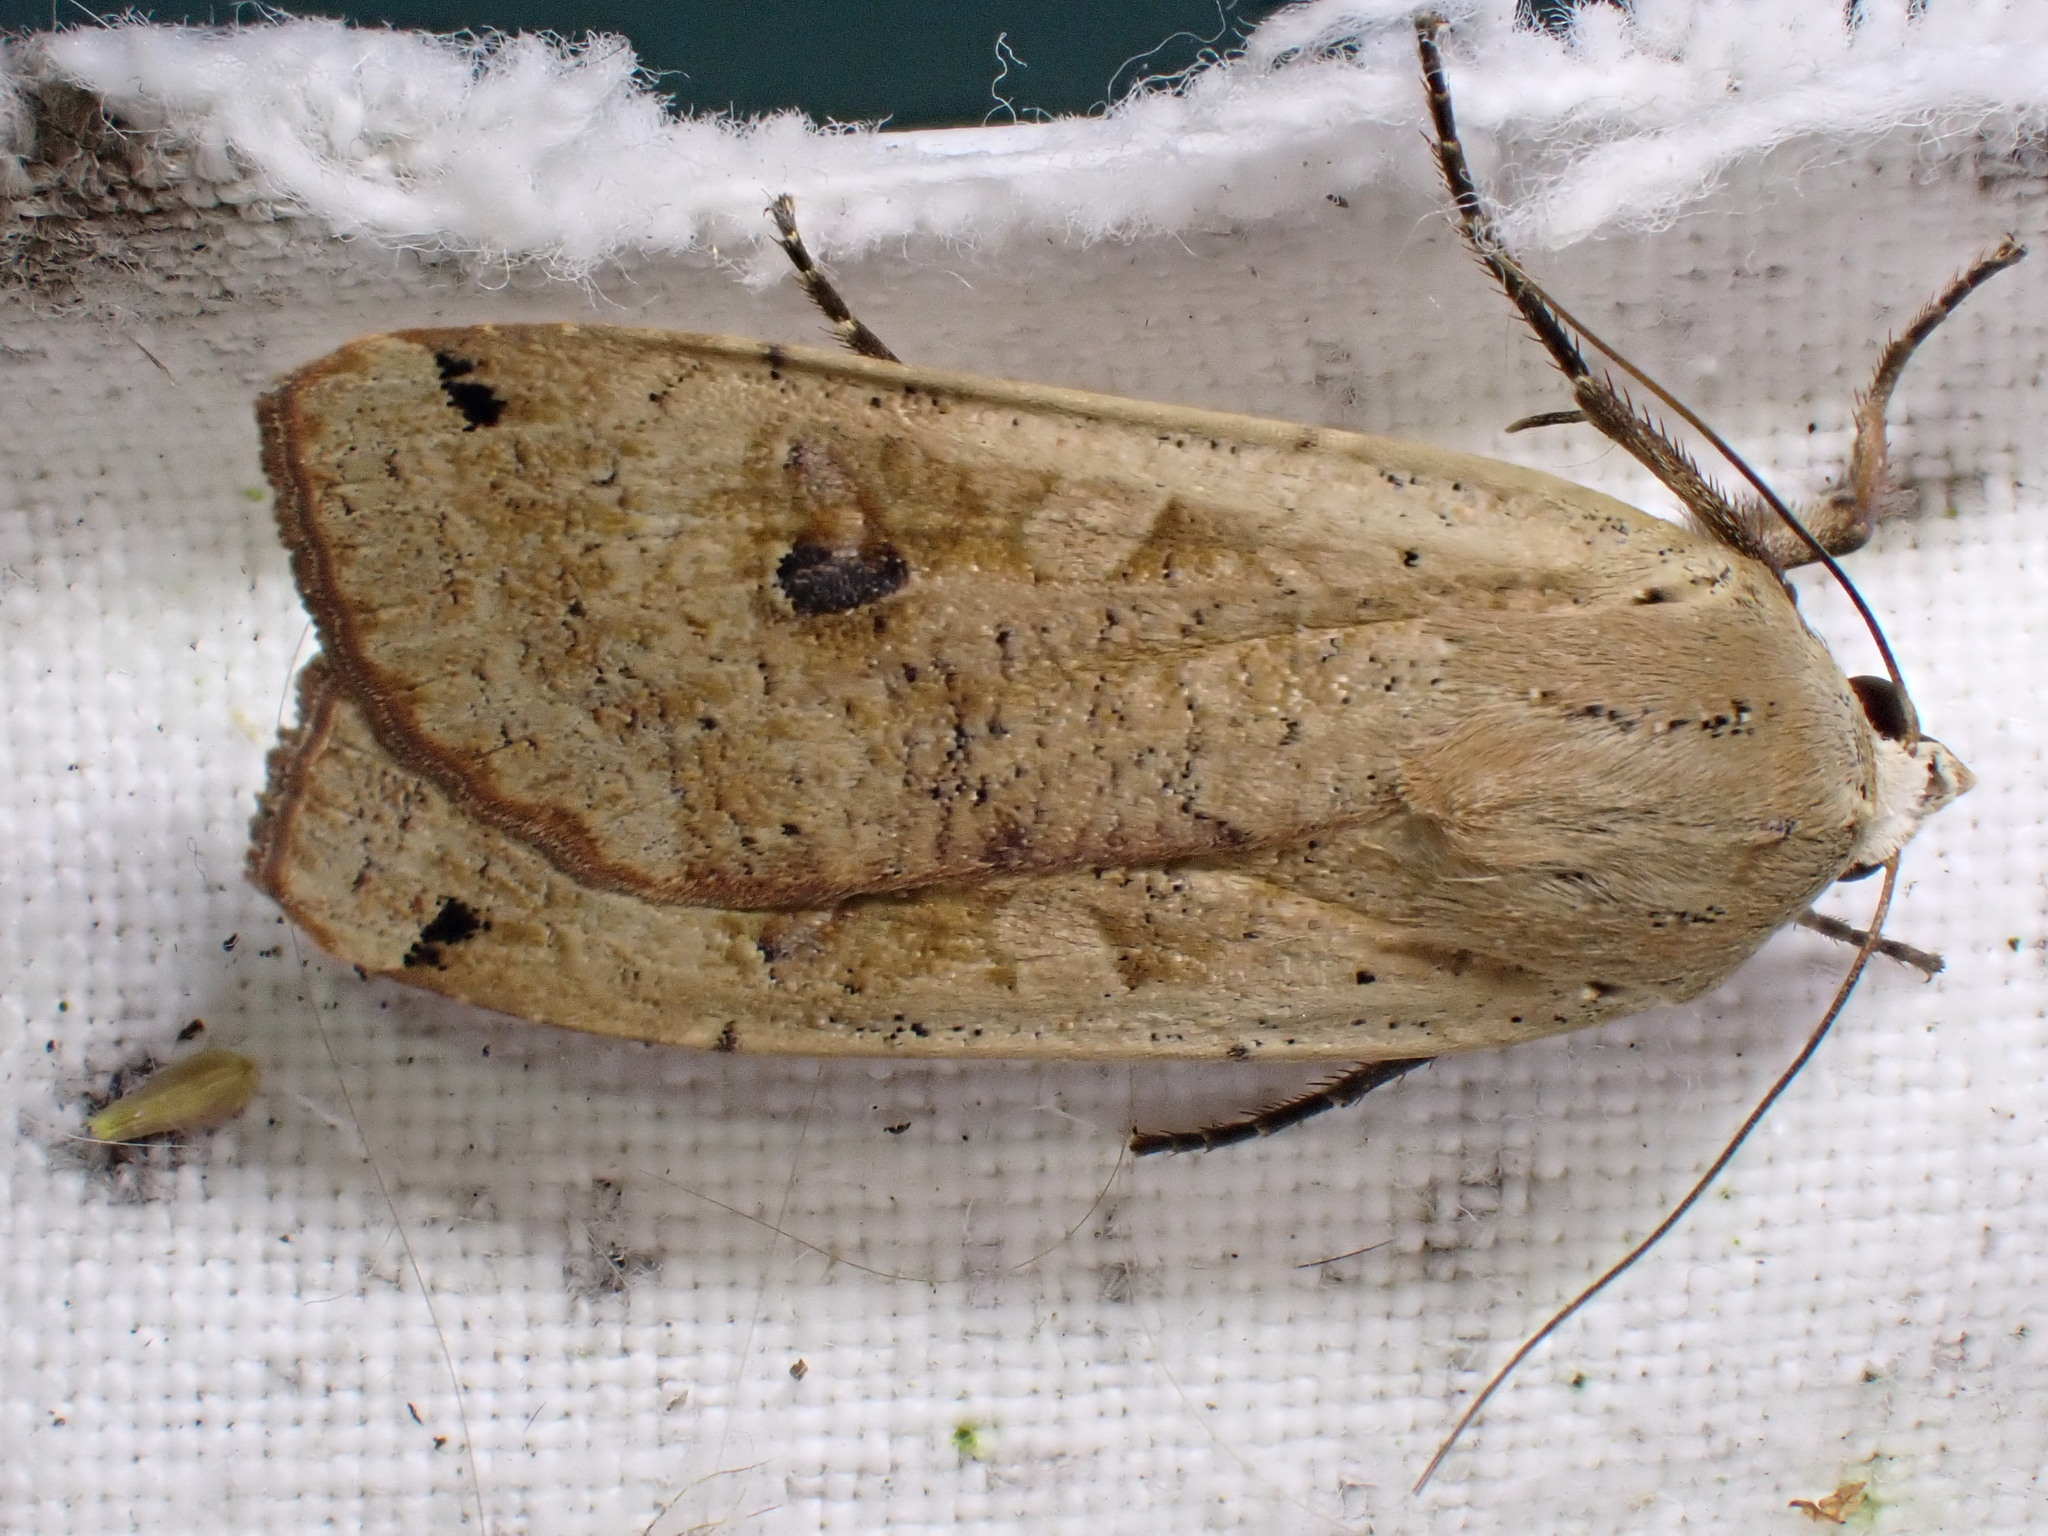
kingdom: Animalia
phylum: Arthropoda
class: Insecta
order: Lepidoptera
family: Noctuidae
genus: Noctua
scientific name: Noctua pronuba
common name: Large yellow underwing
